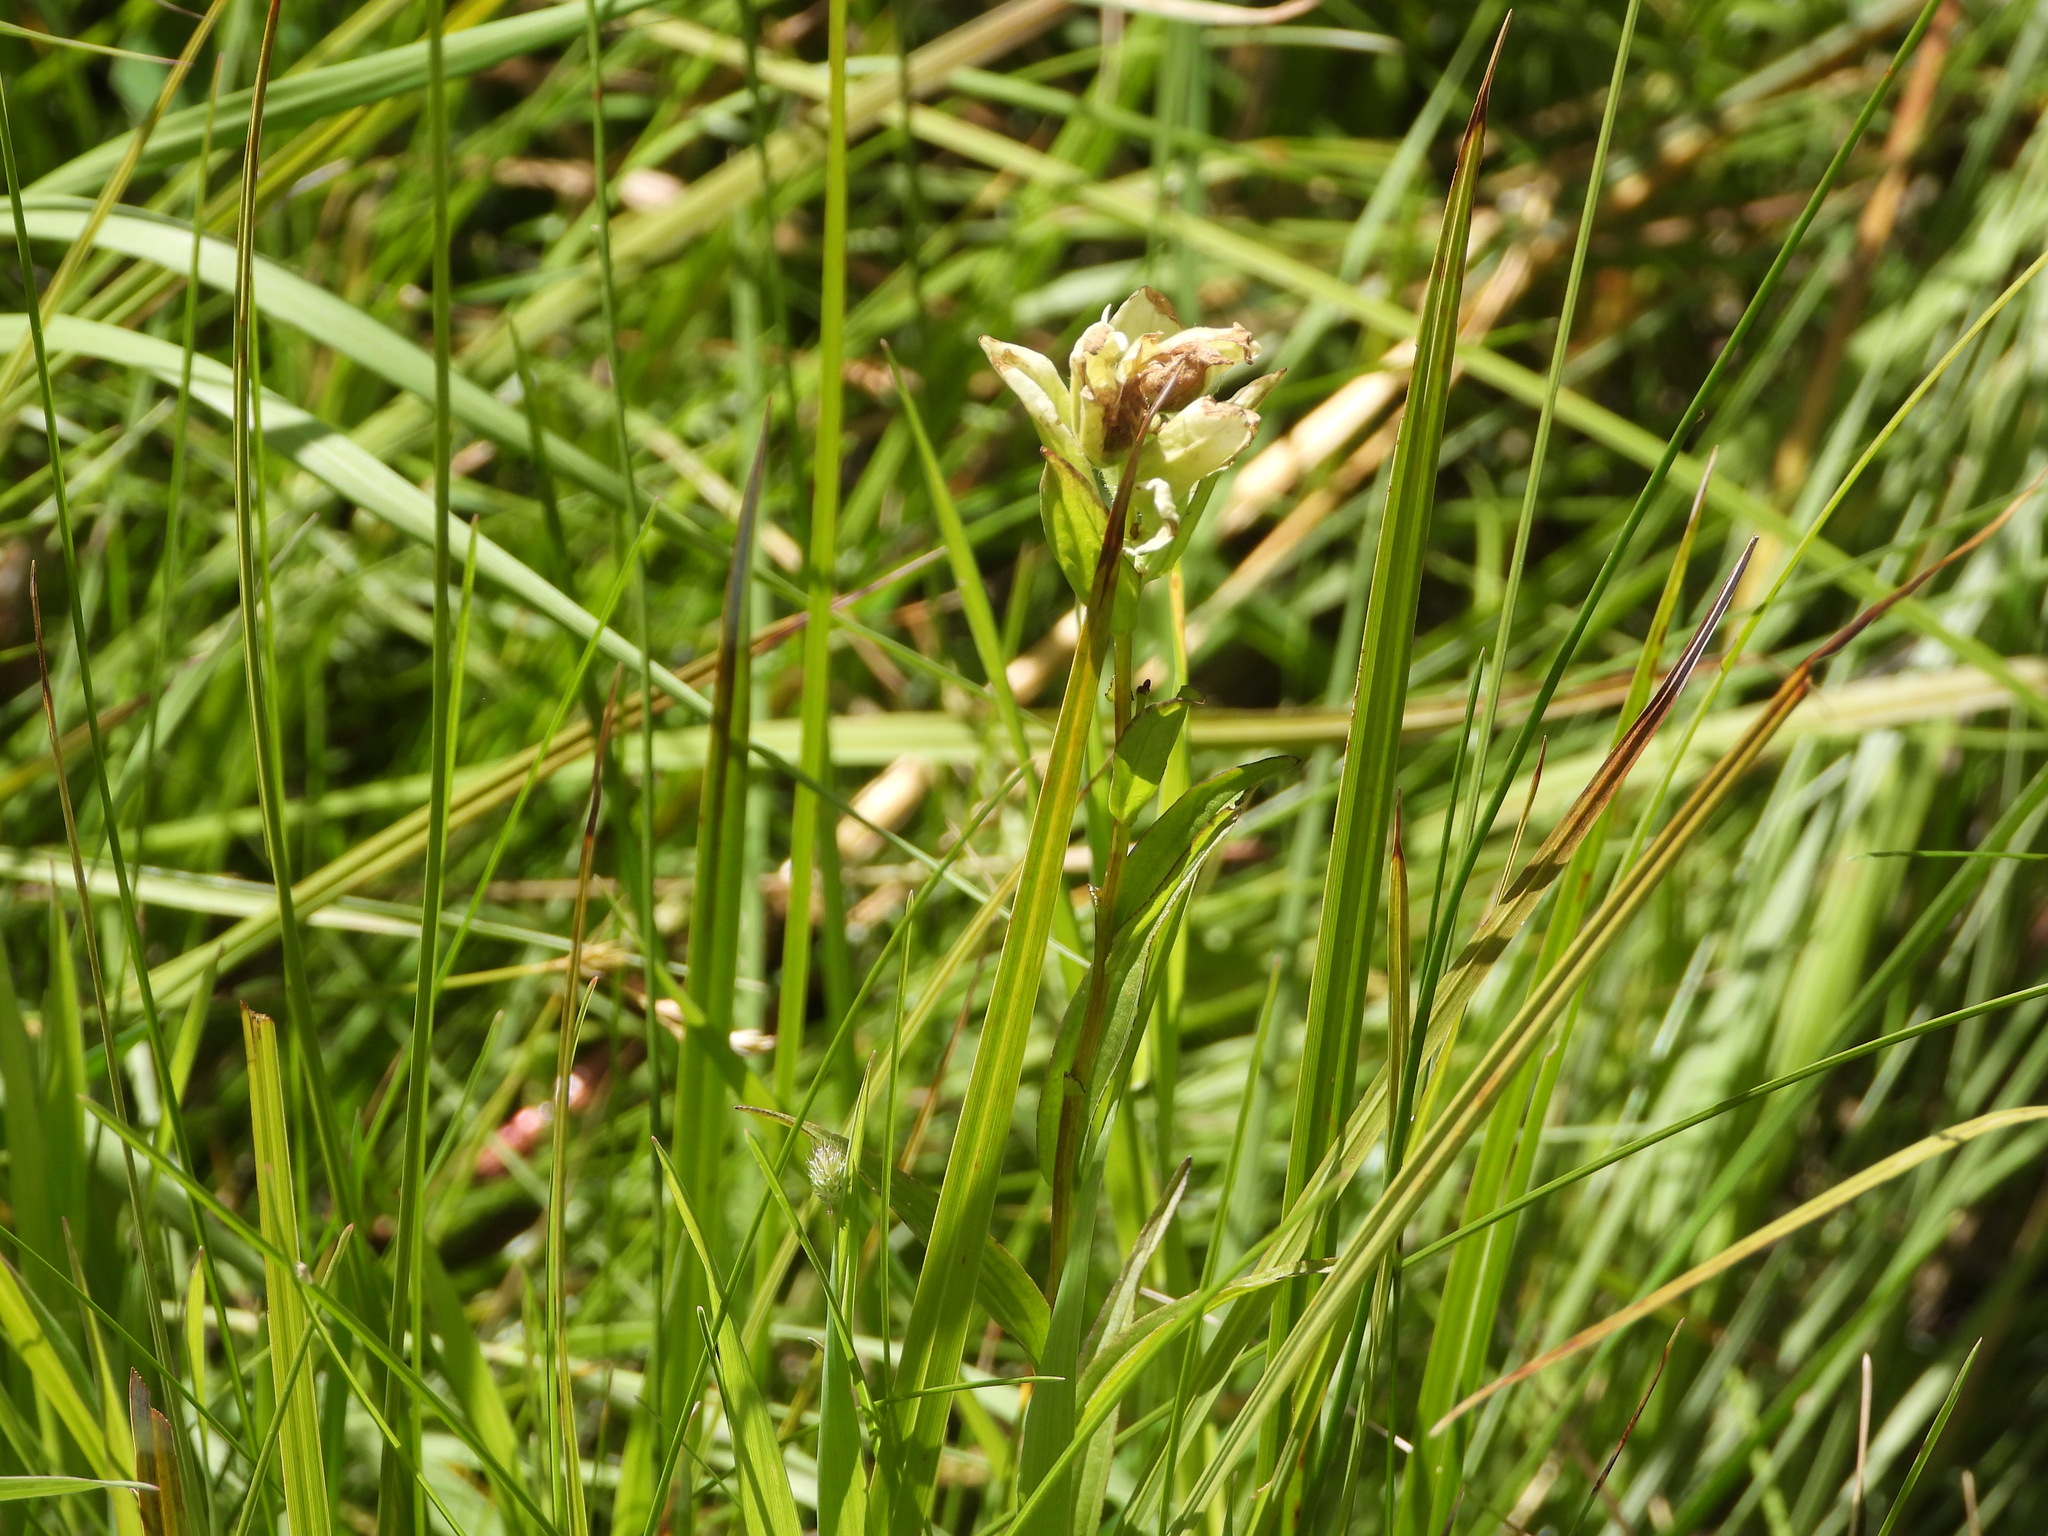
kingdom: Plantae
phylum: Tracheophyta
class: Magnoliopsida
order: Lamiales
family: Orobanchaceae
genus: Castilleja
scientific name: Castilleja septentrionalis
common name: Northeastern paintbrush
